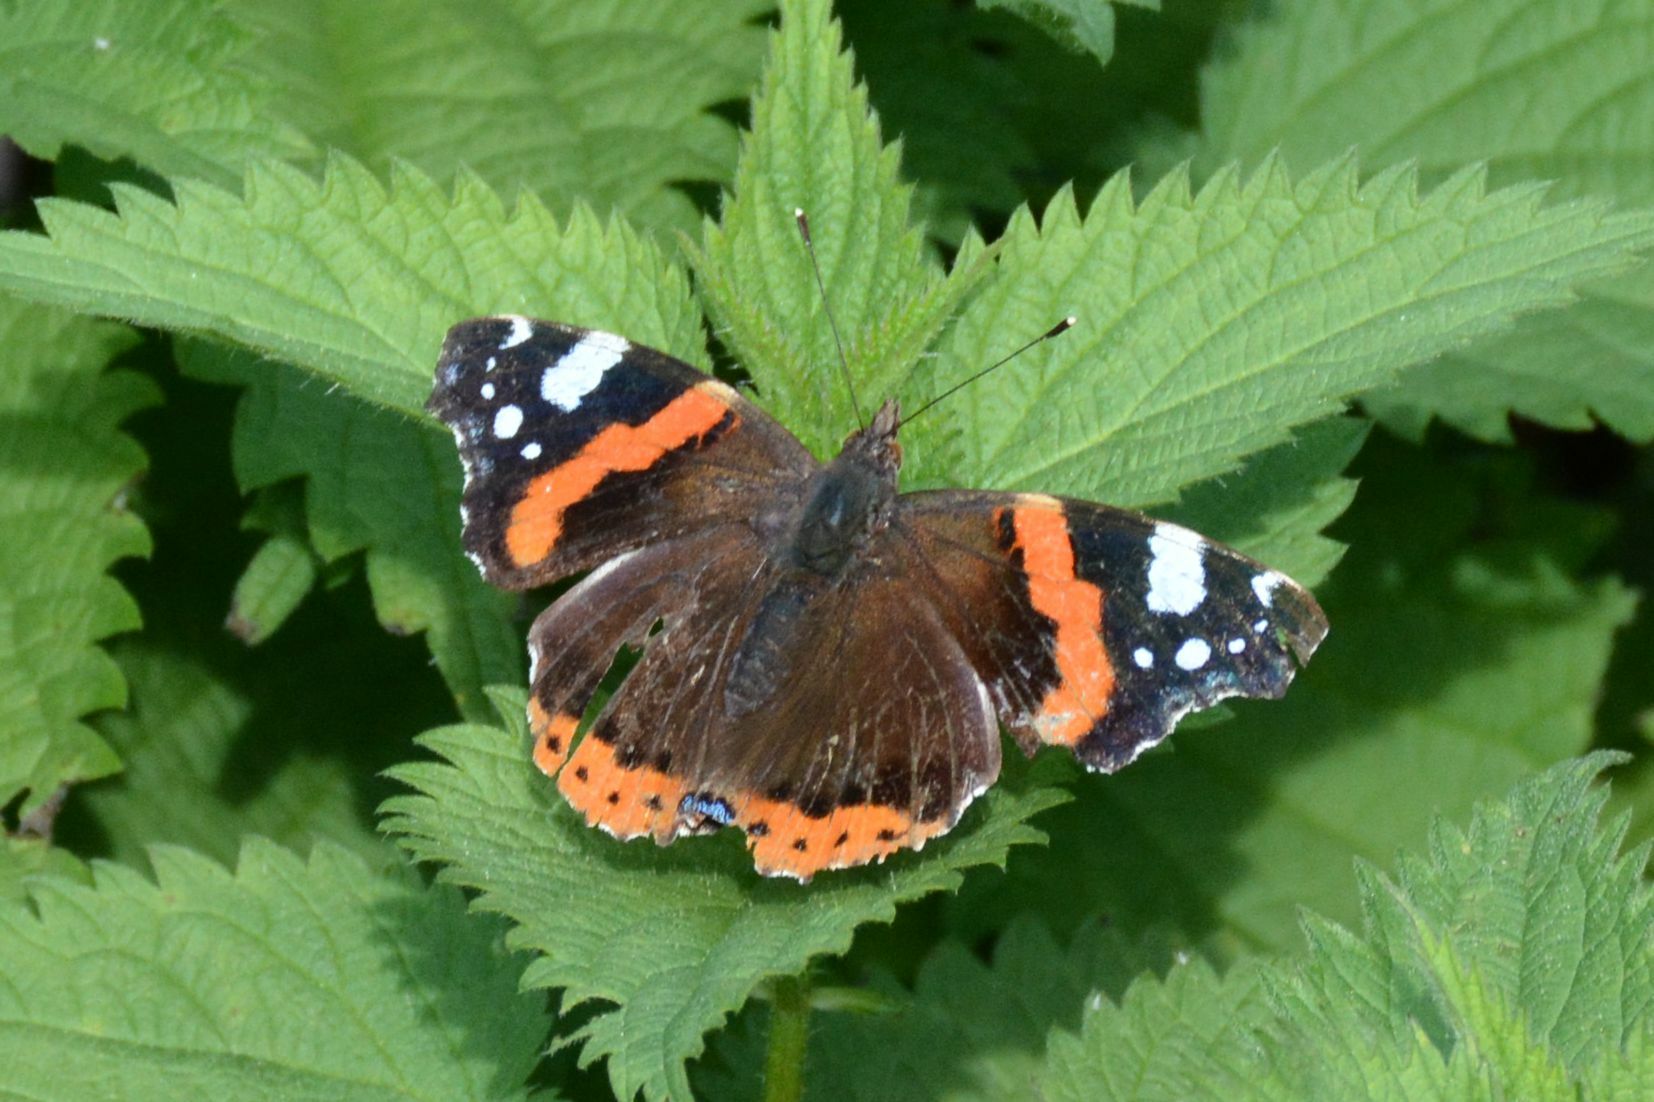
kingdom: Animalia
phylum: Arthropoda
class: Insecta
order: Lepidoptera
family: Nymphalidae
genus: Vanessa
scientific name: Vanessa atalanta
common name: Red admiral
